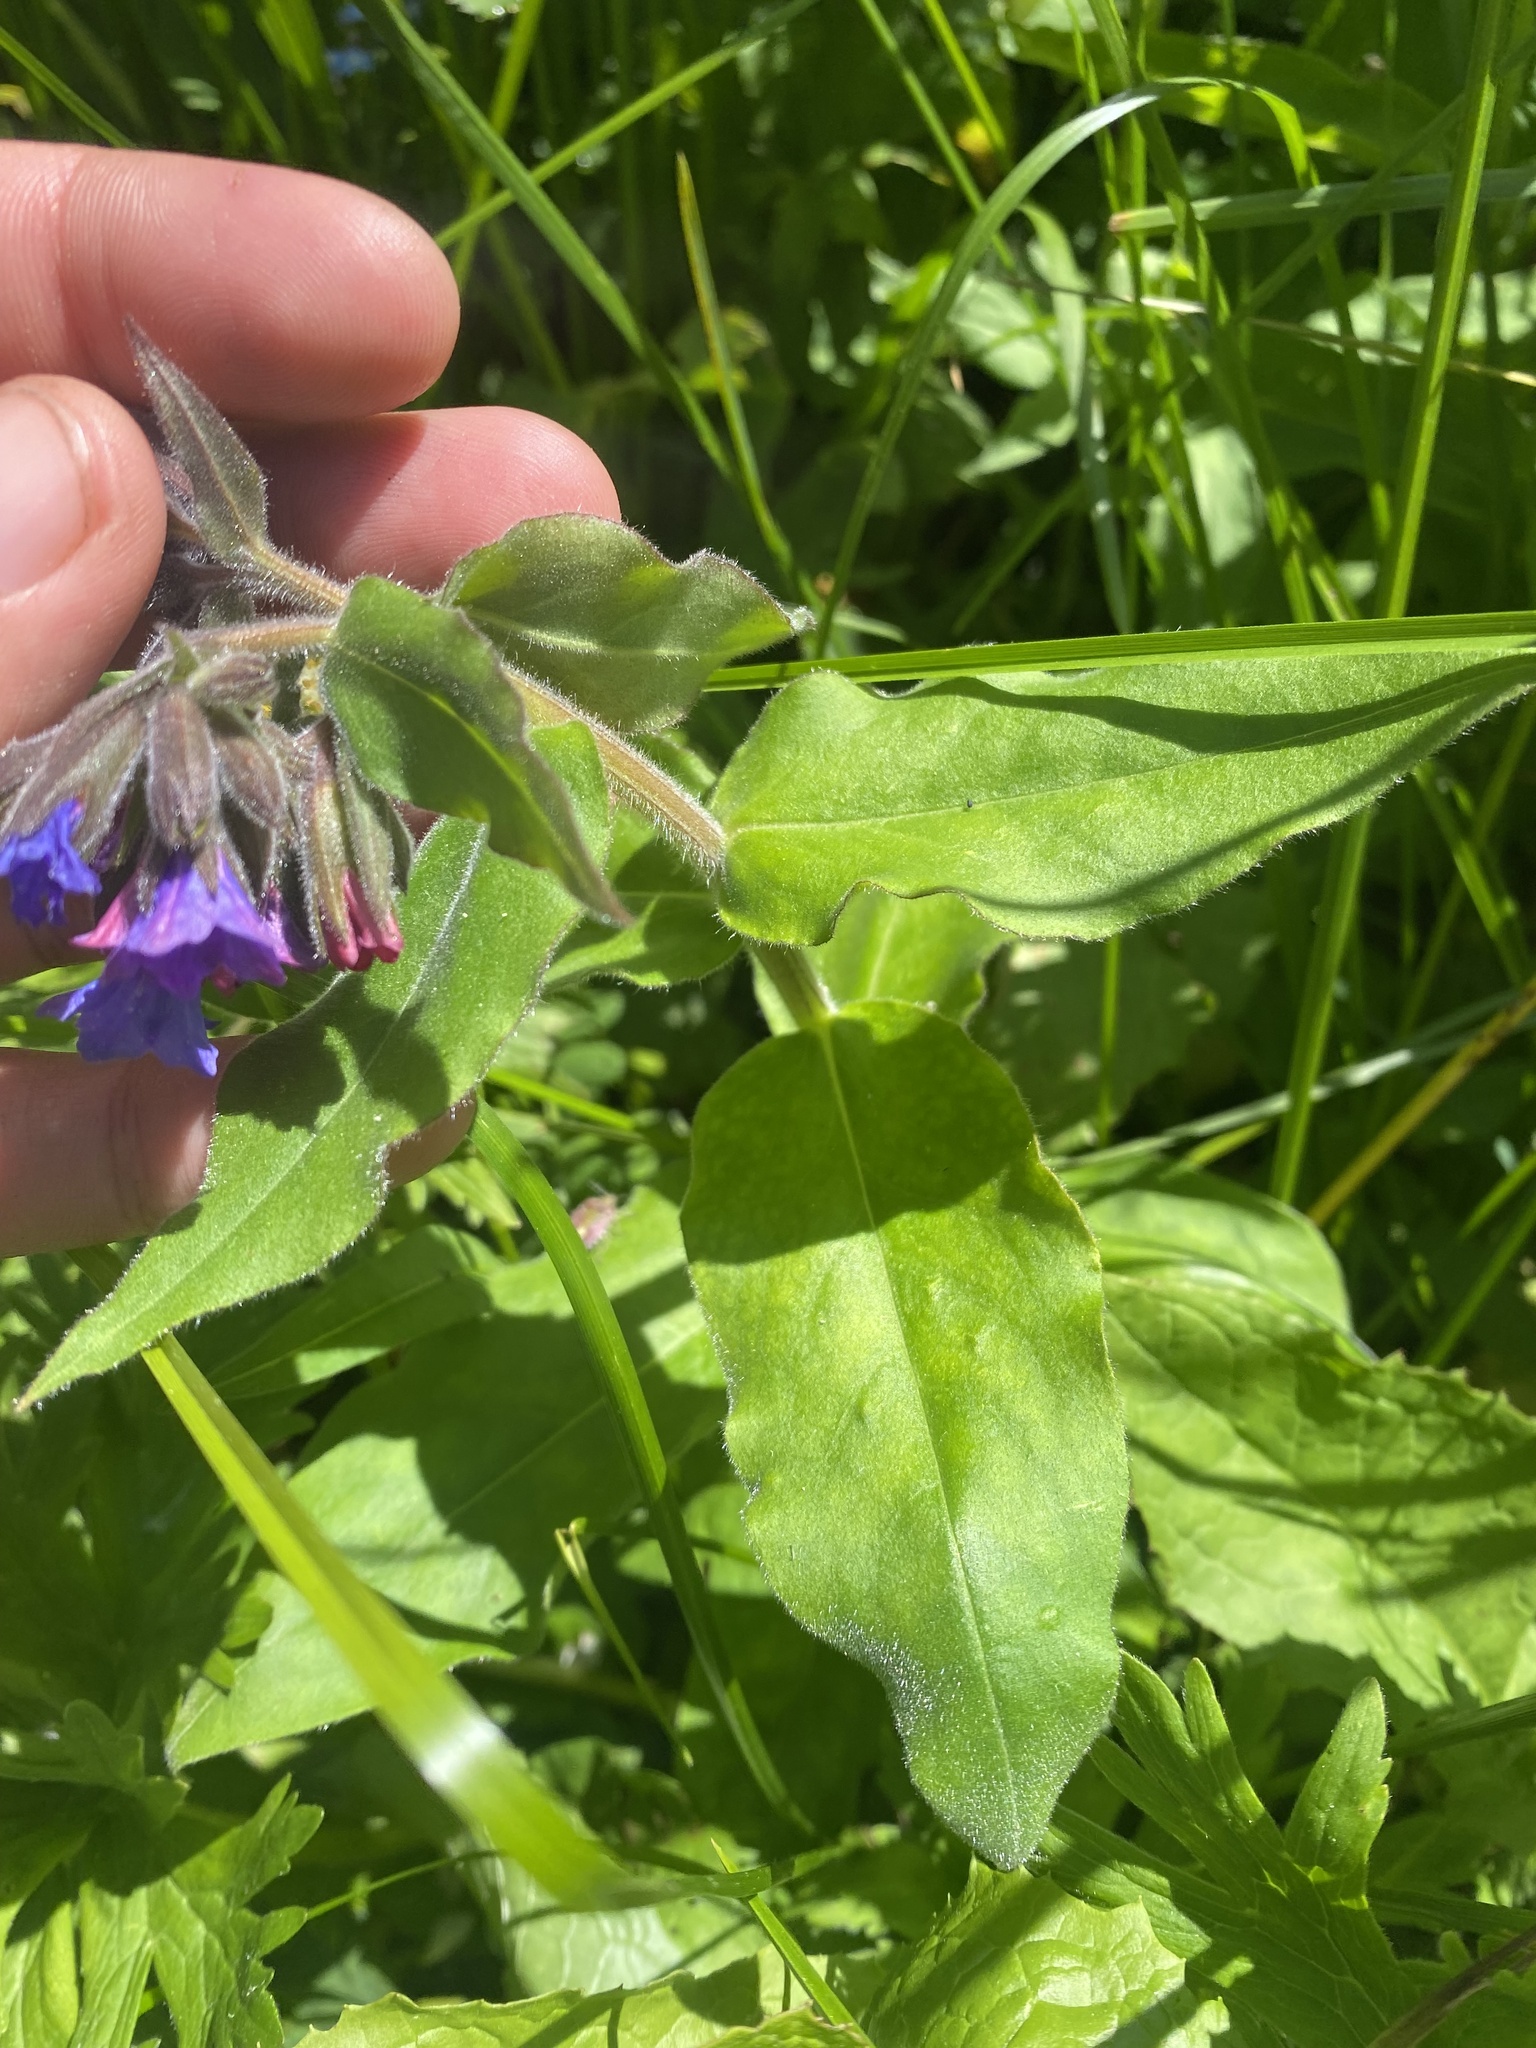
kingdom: Plantae
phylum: Tracheophyta
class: Magnoliopsida
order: Boraginales
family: Boraginaceae
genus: Pulmonaria
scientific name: Pulmonaria mollis
